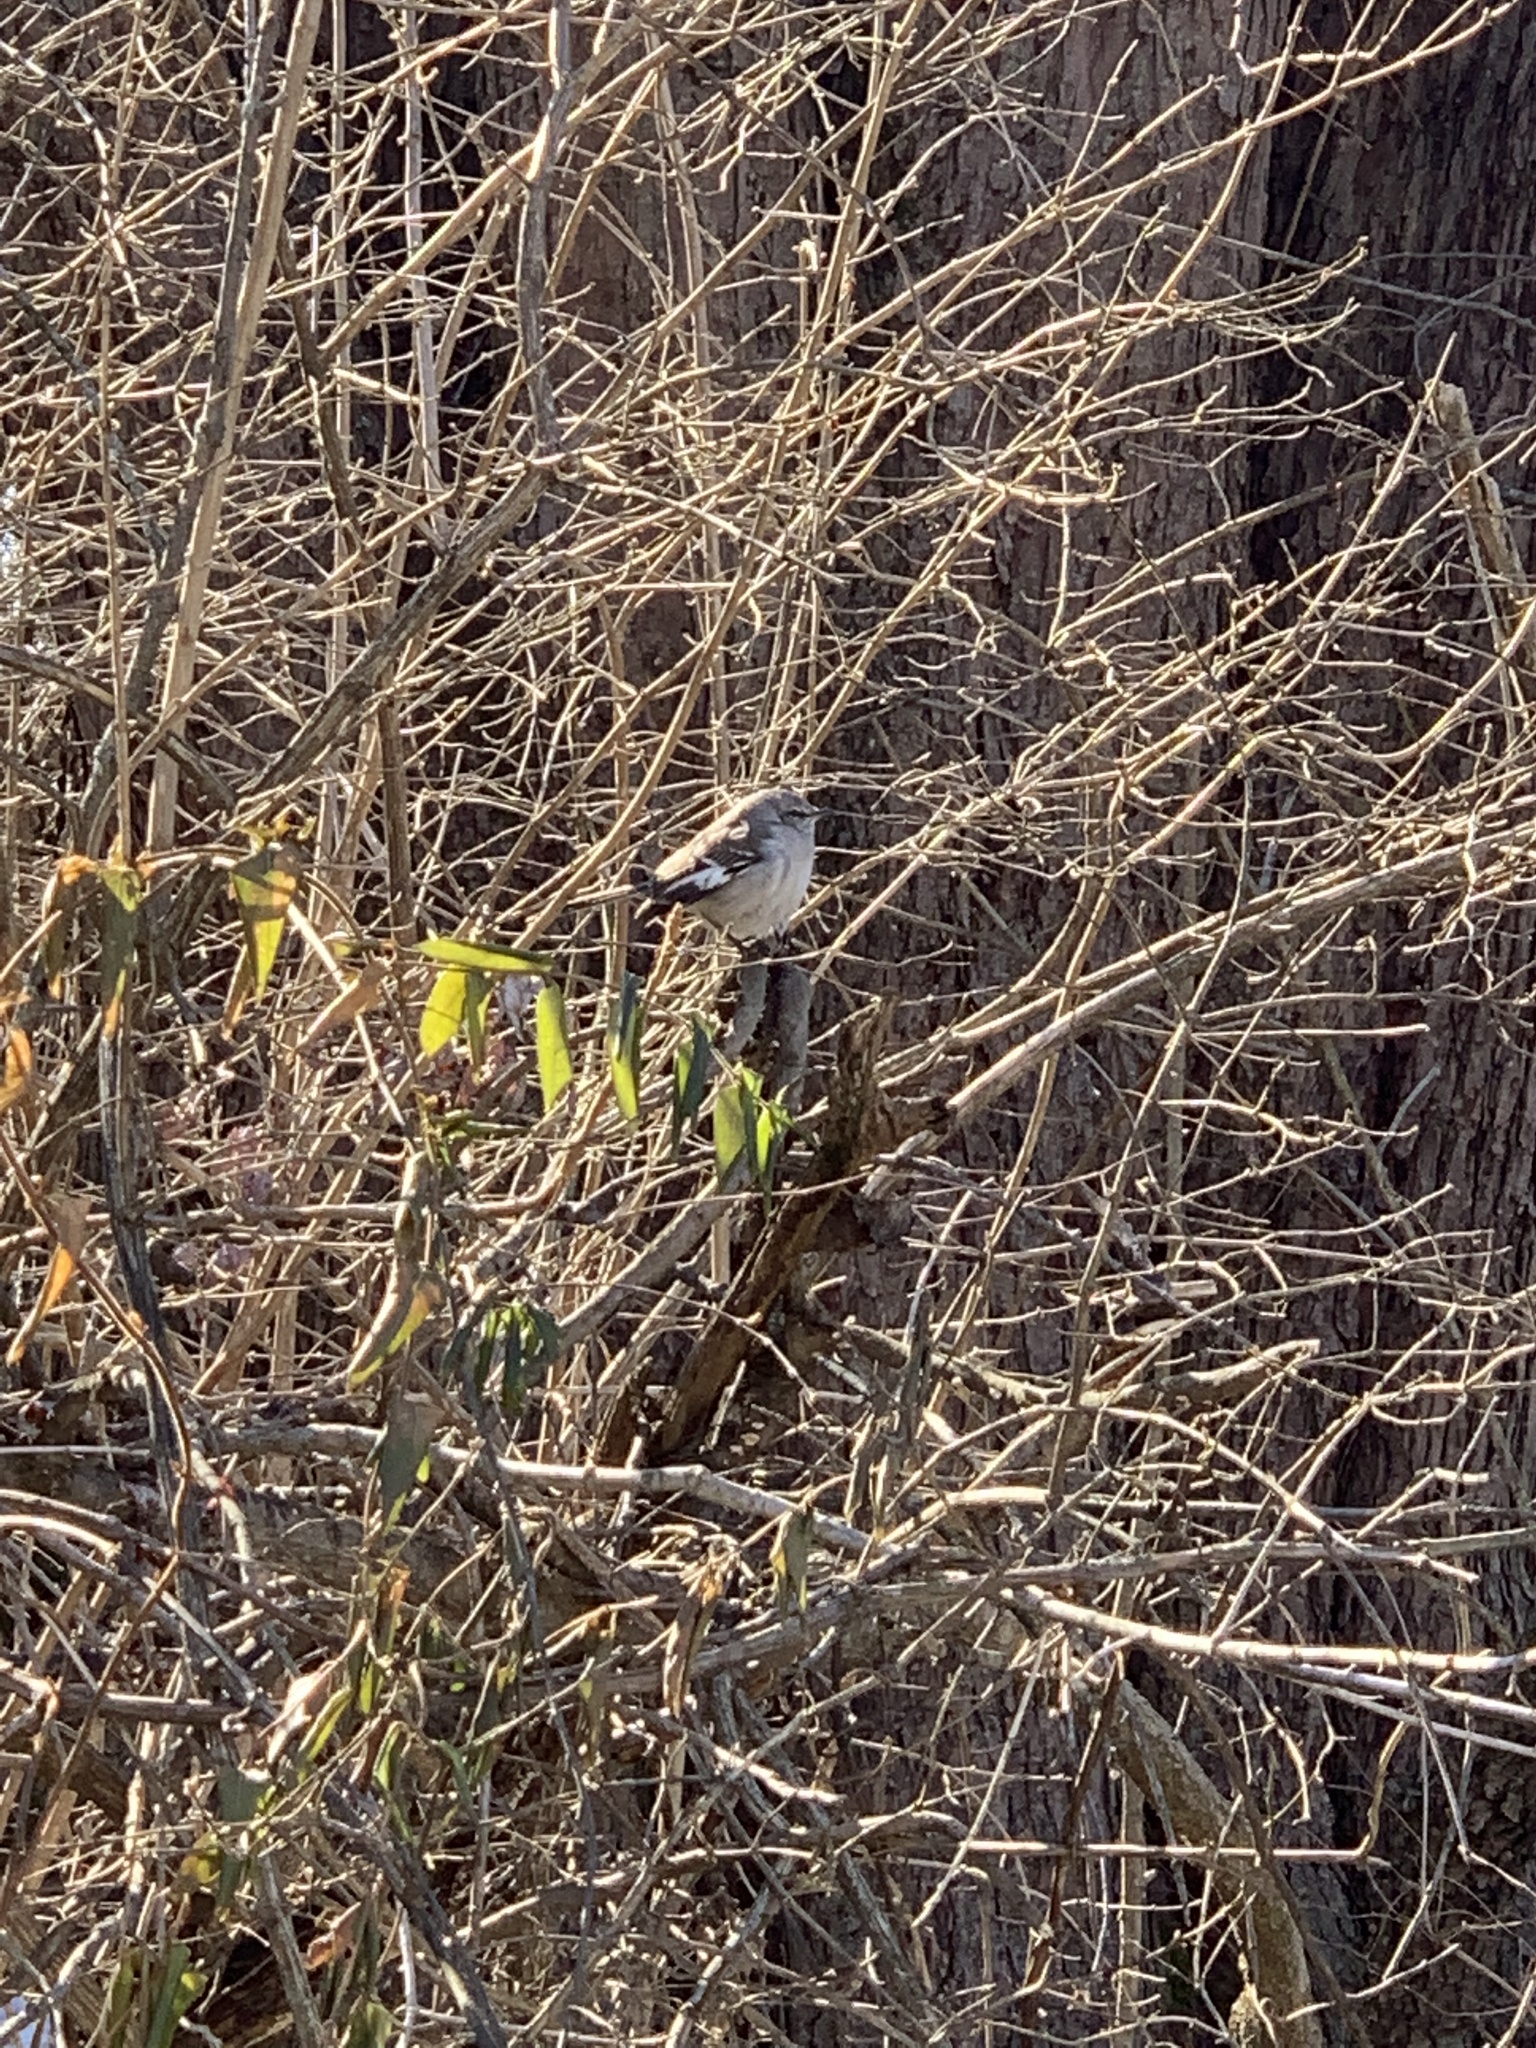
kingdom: Animalia
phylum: Chordata
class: Aves
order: Passeriformes
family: Mimidae
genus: Mimus
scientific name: Mimus polyglottos
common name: Northern mockingbird
